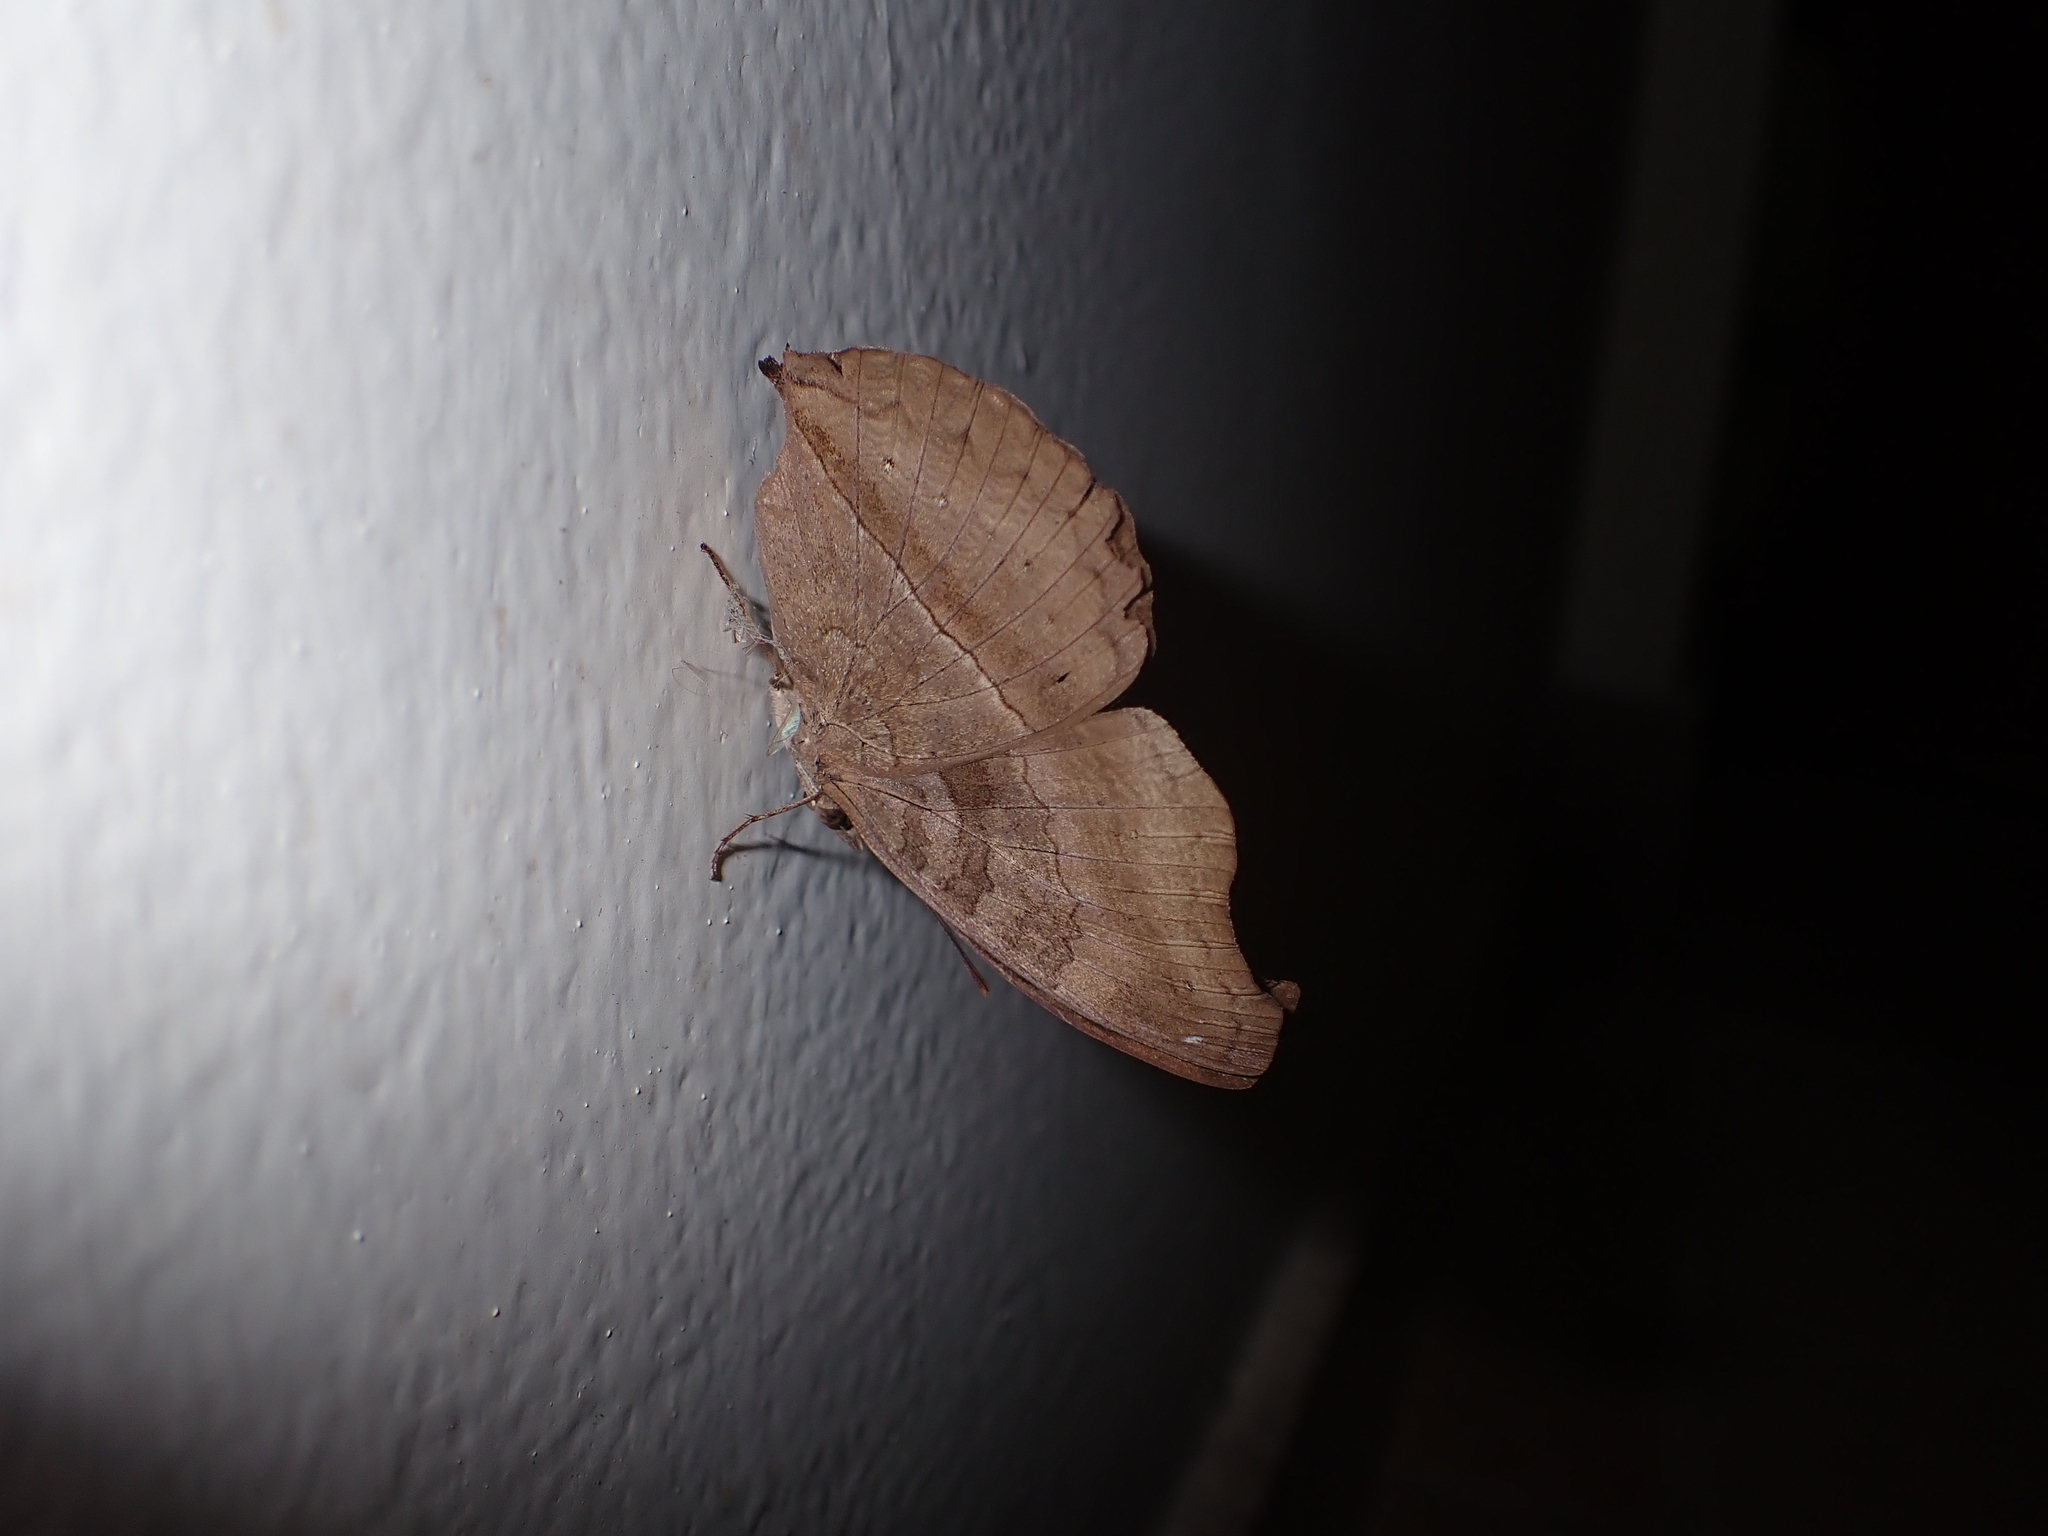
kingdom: Animalia
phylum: Arthropoda
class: Insecta
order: Lepidoptera
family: Nymphalidae
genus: Junonia
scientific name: Junonia iphita
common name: Chocolate pansy
